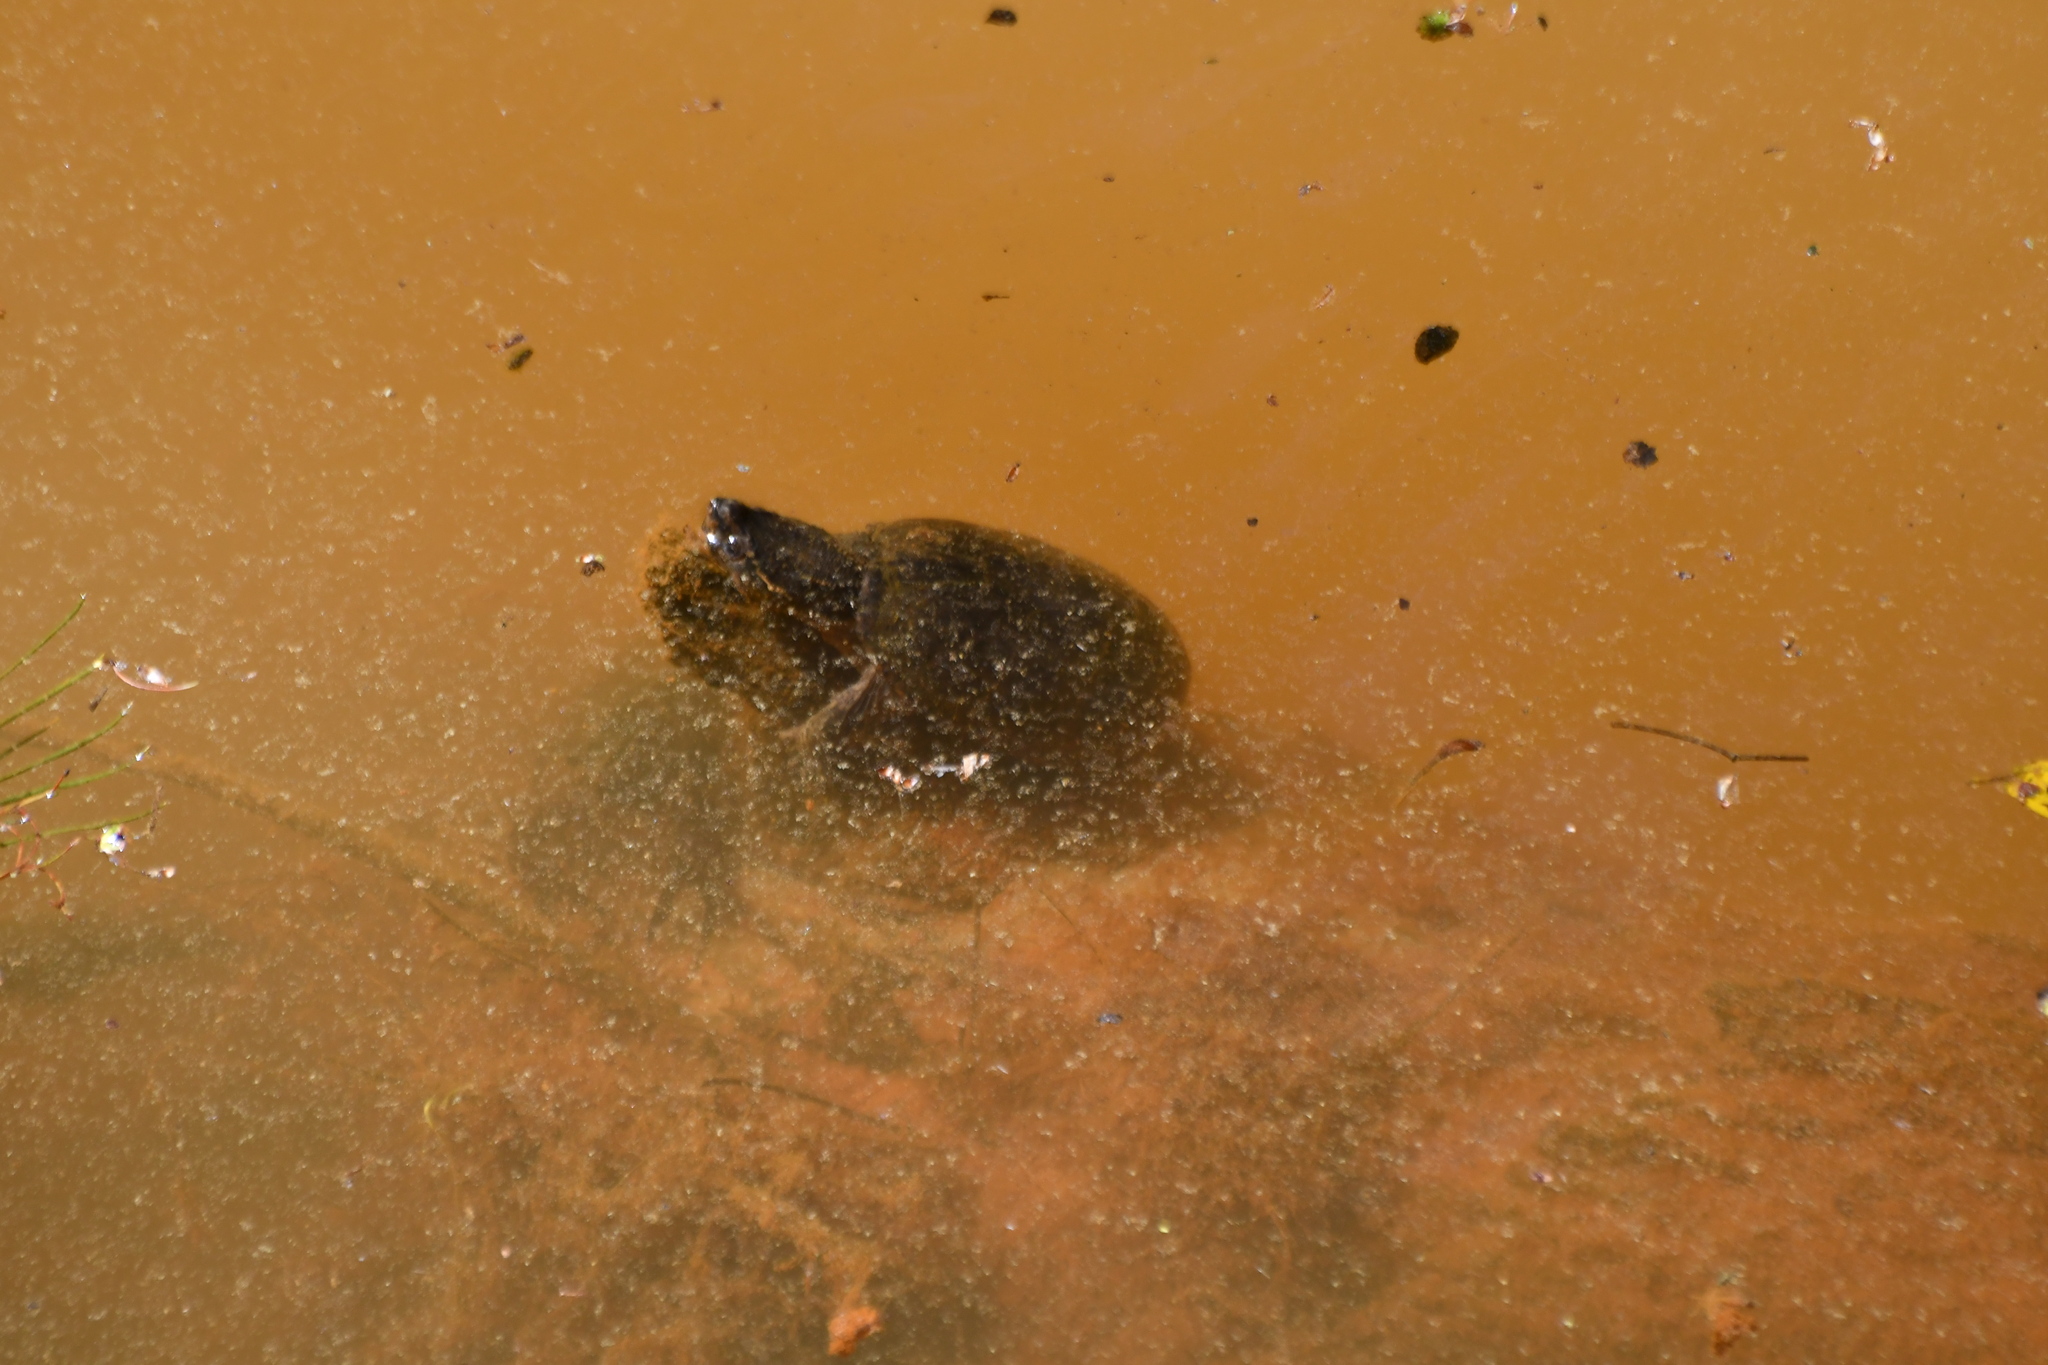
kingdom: Animalia
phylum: Chordata
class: Testudines
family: Kinosternidae
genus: Sternotherus
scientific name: Sternotherus odoratus
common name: Common musk turtle
